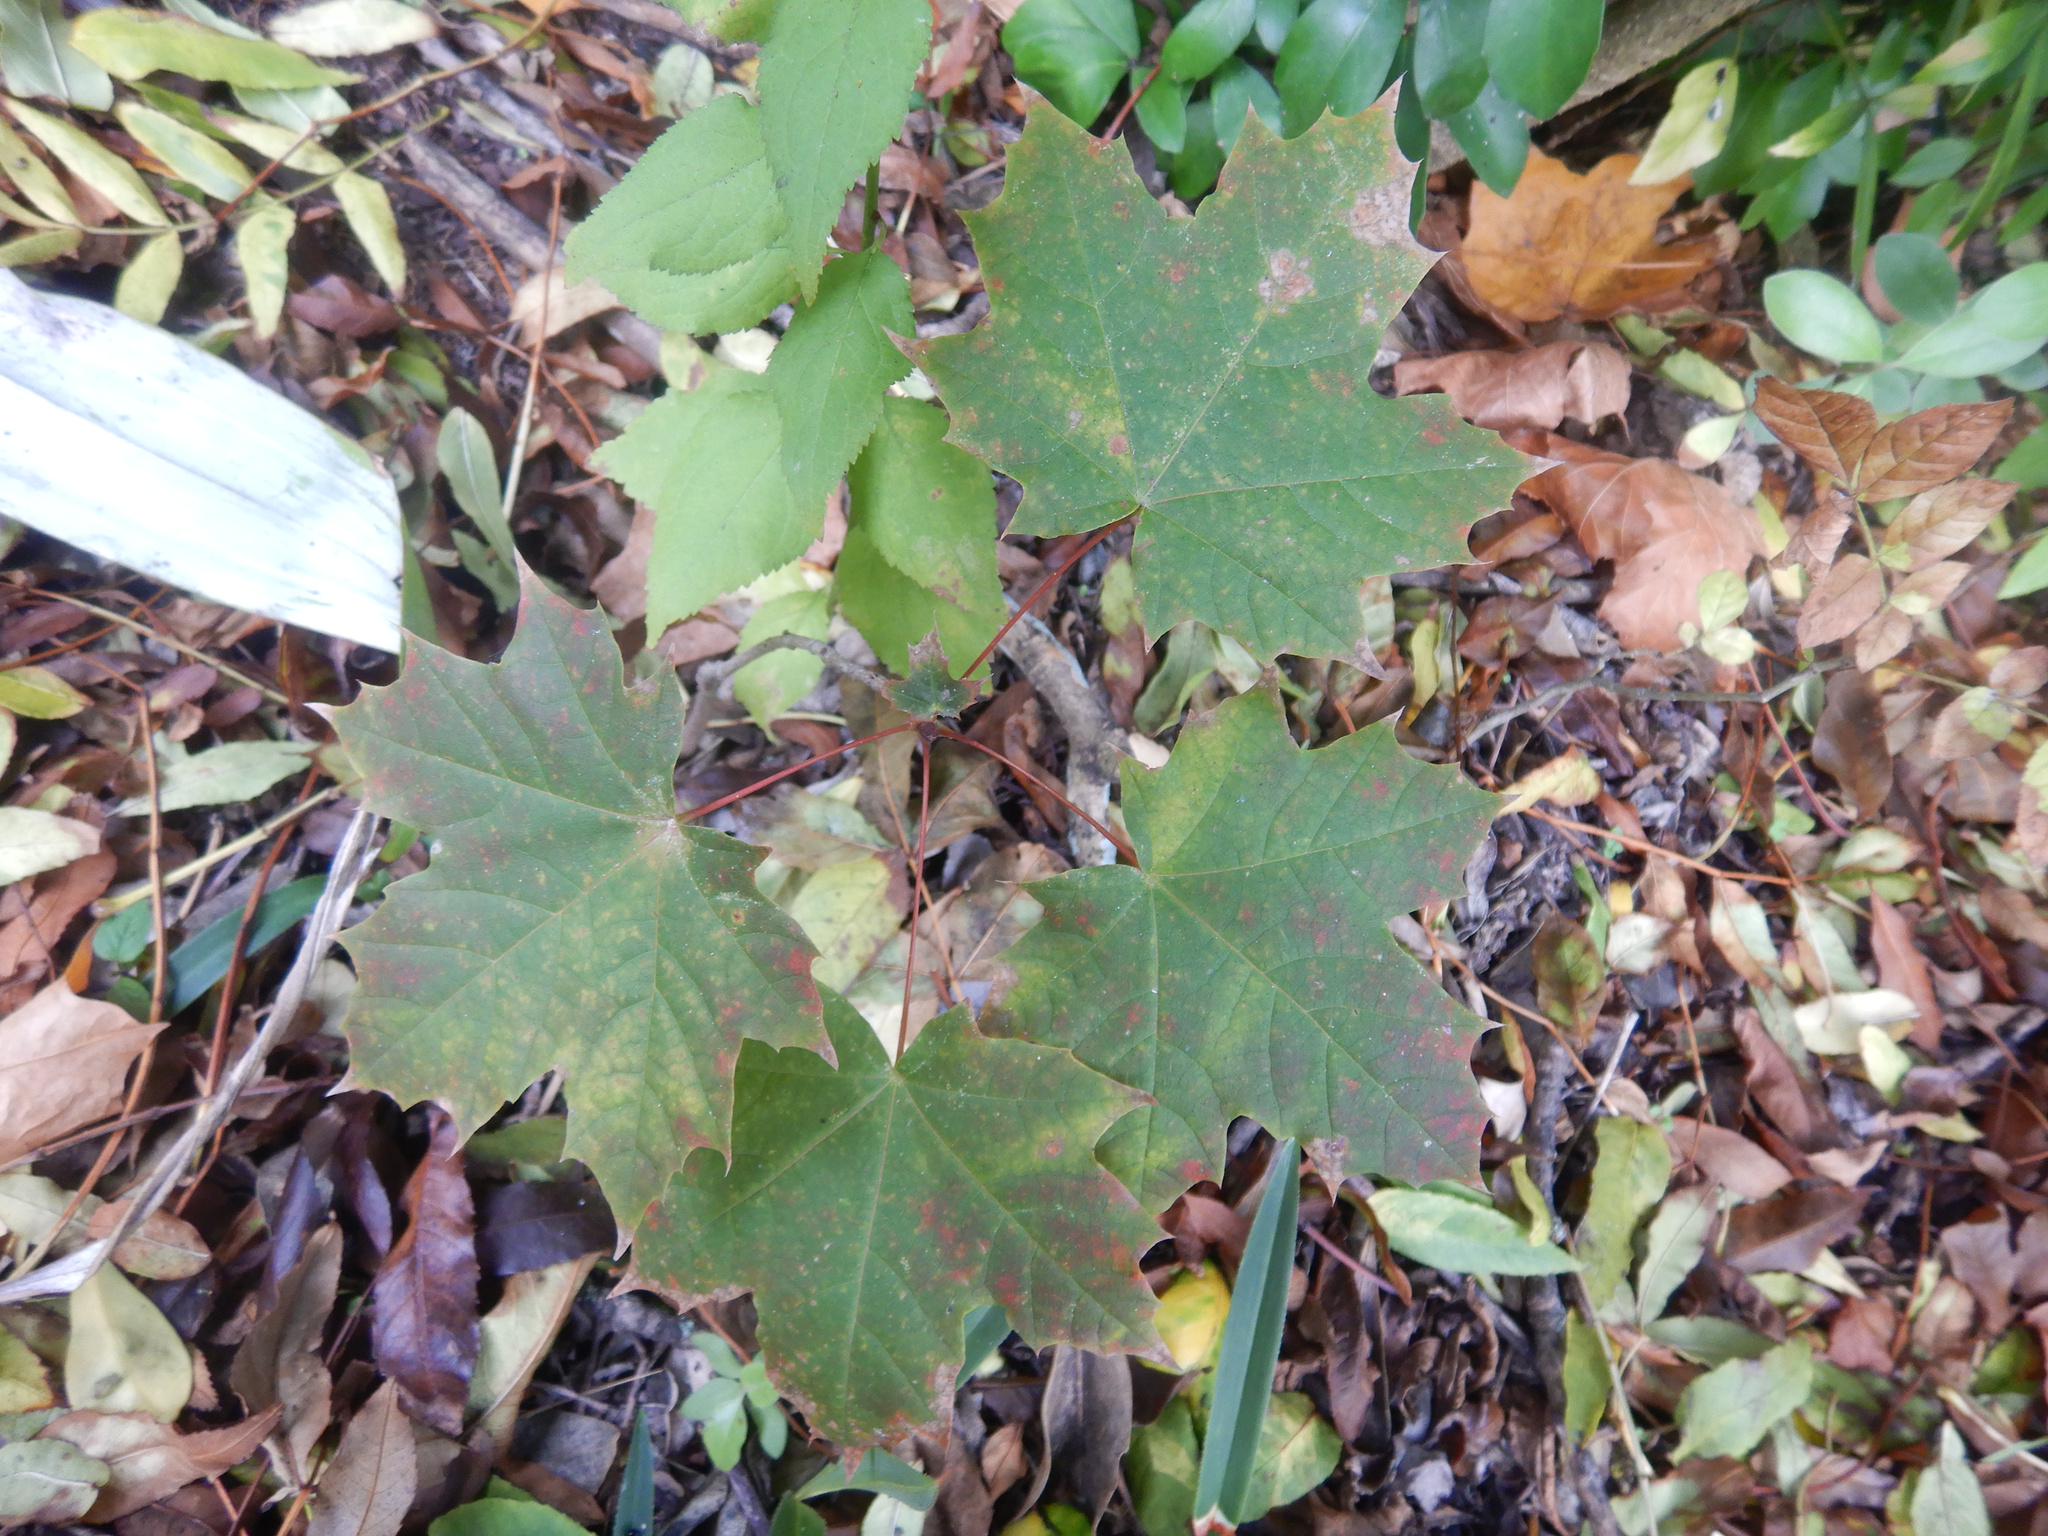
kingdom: Plantae
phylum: Tracheophyta
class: Magnoliopsida
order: Sapindales
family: Sapindaceae
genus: Acer
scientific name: Acer platanoides
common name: Norway maple
